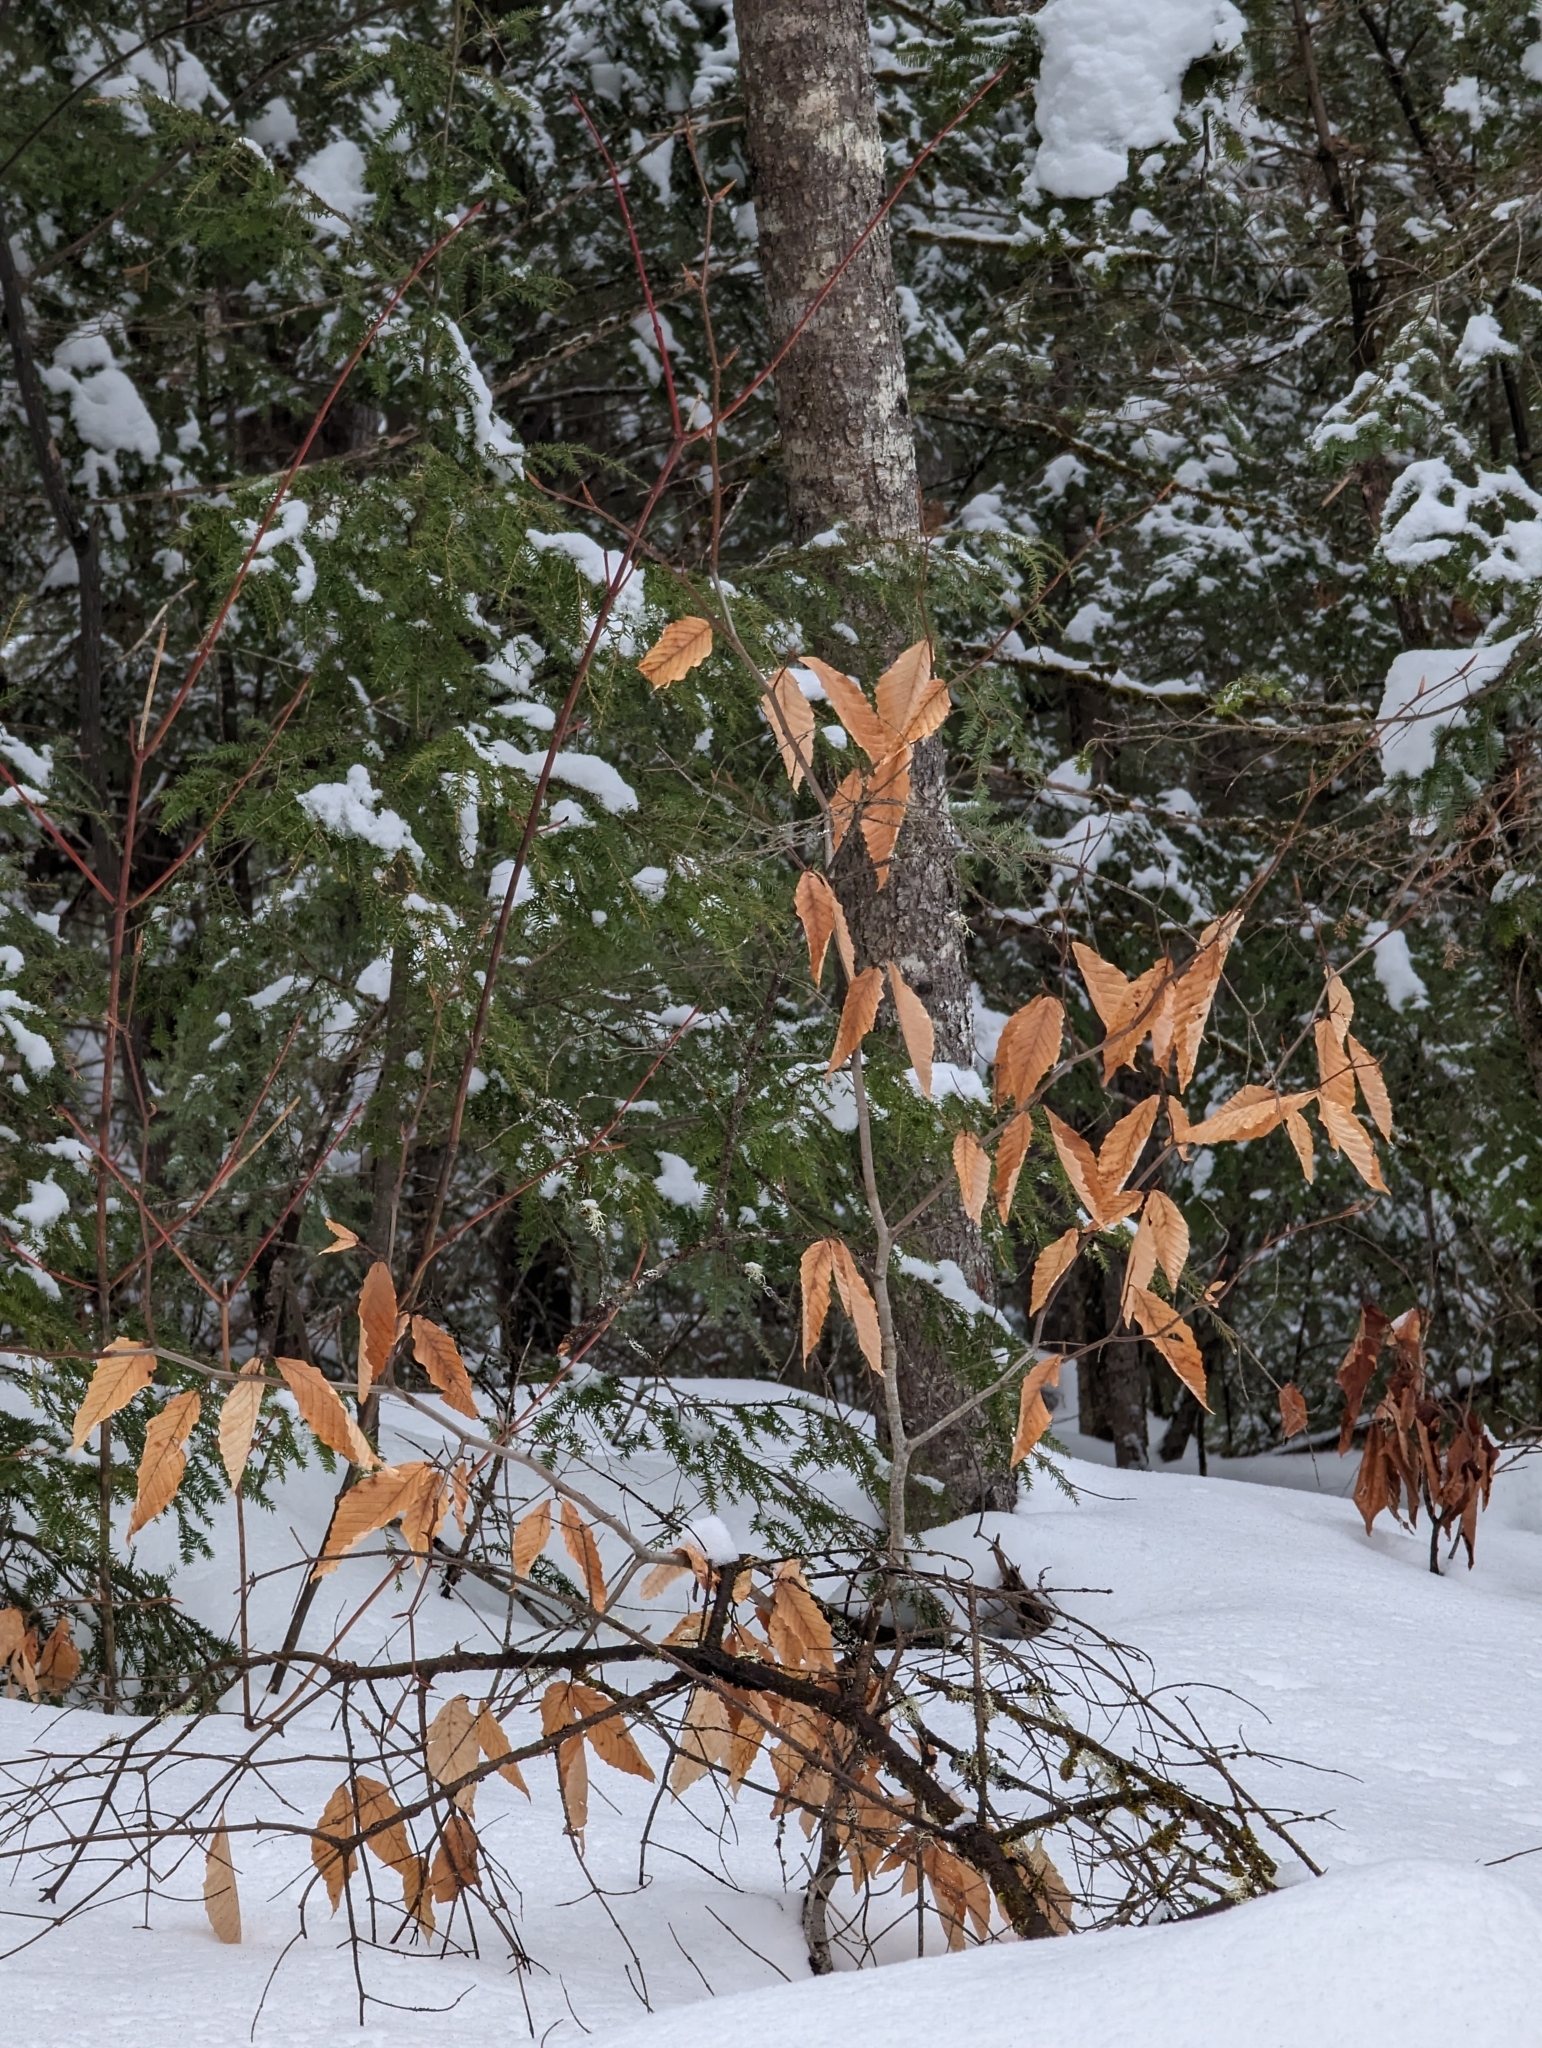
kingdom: Plantae
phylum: Tracheophyta
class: Magnoliopsida
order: Fagales
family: Fagaceae
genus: Fagus
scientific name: Fagus grandifolia
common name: American beech
